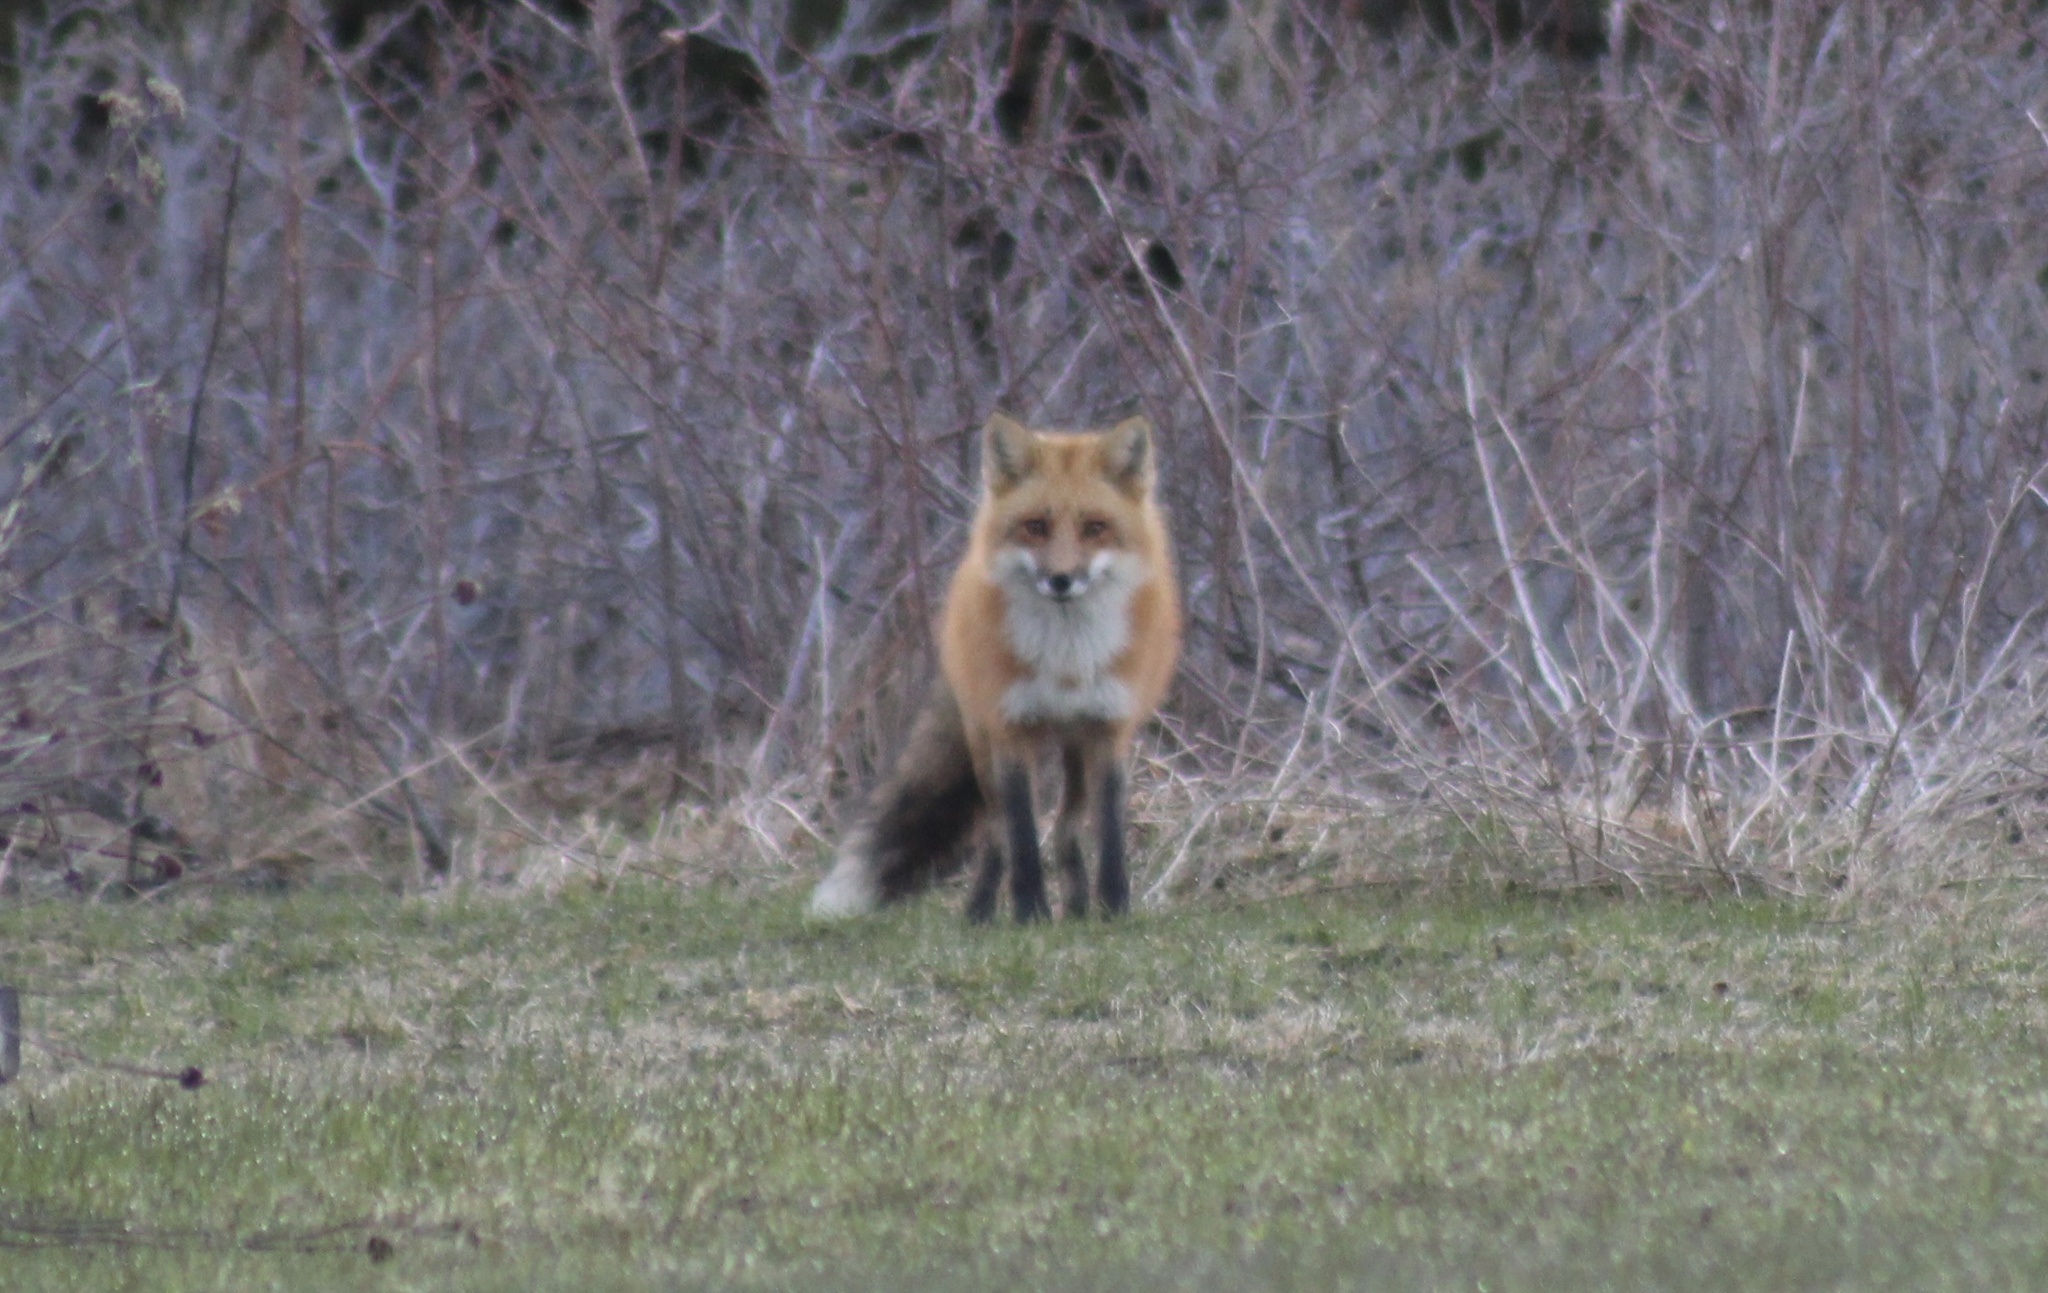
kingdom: Animalia
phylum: Chordata
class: Mammalia
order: Carnivora
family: Canidae
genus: Vulpes
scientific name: Vulpes vulpes
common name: Red fox
